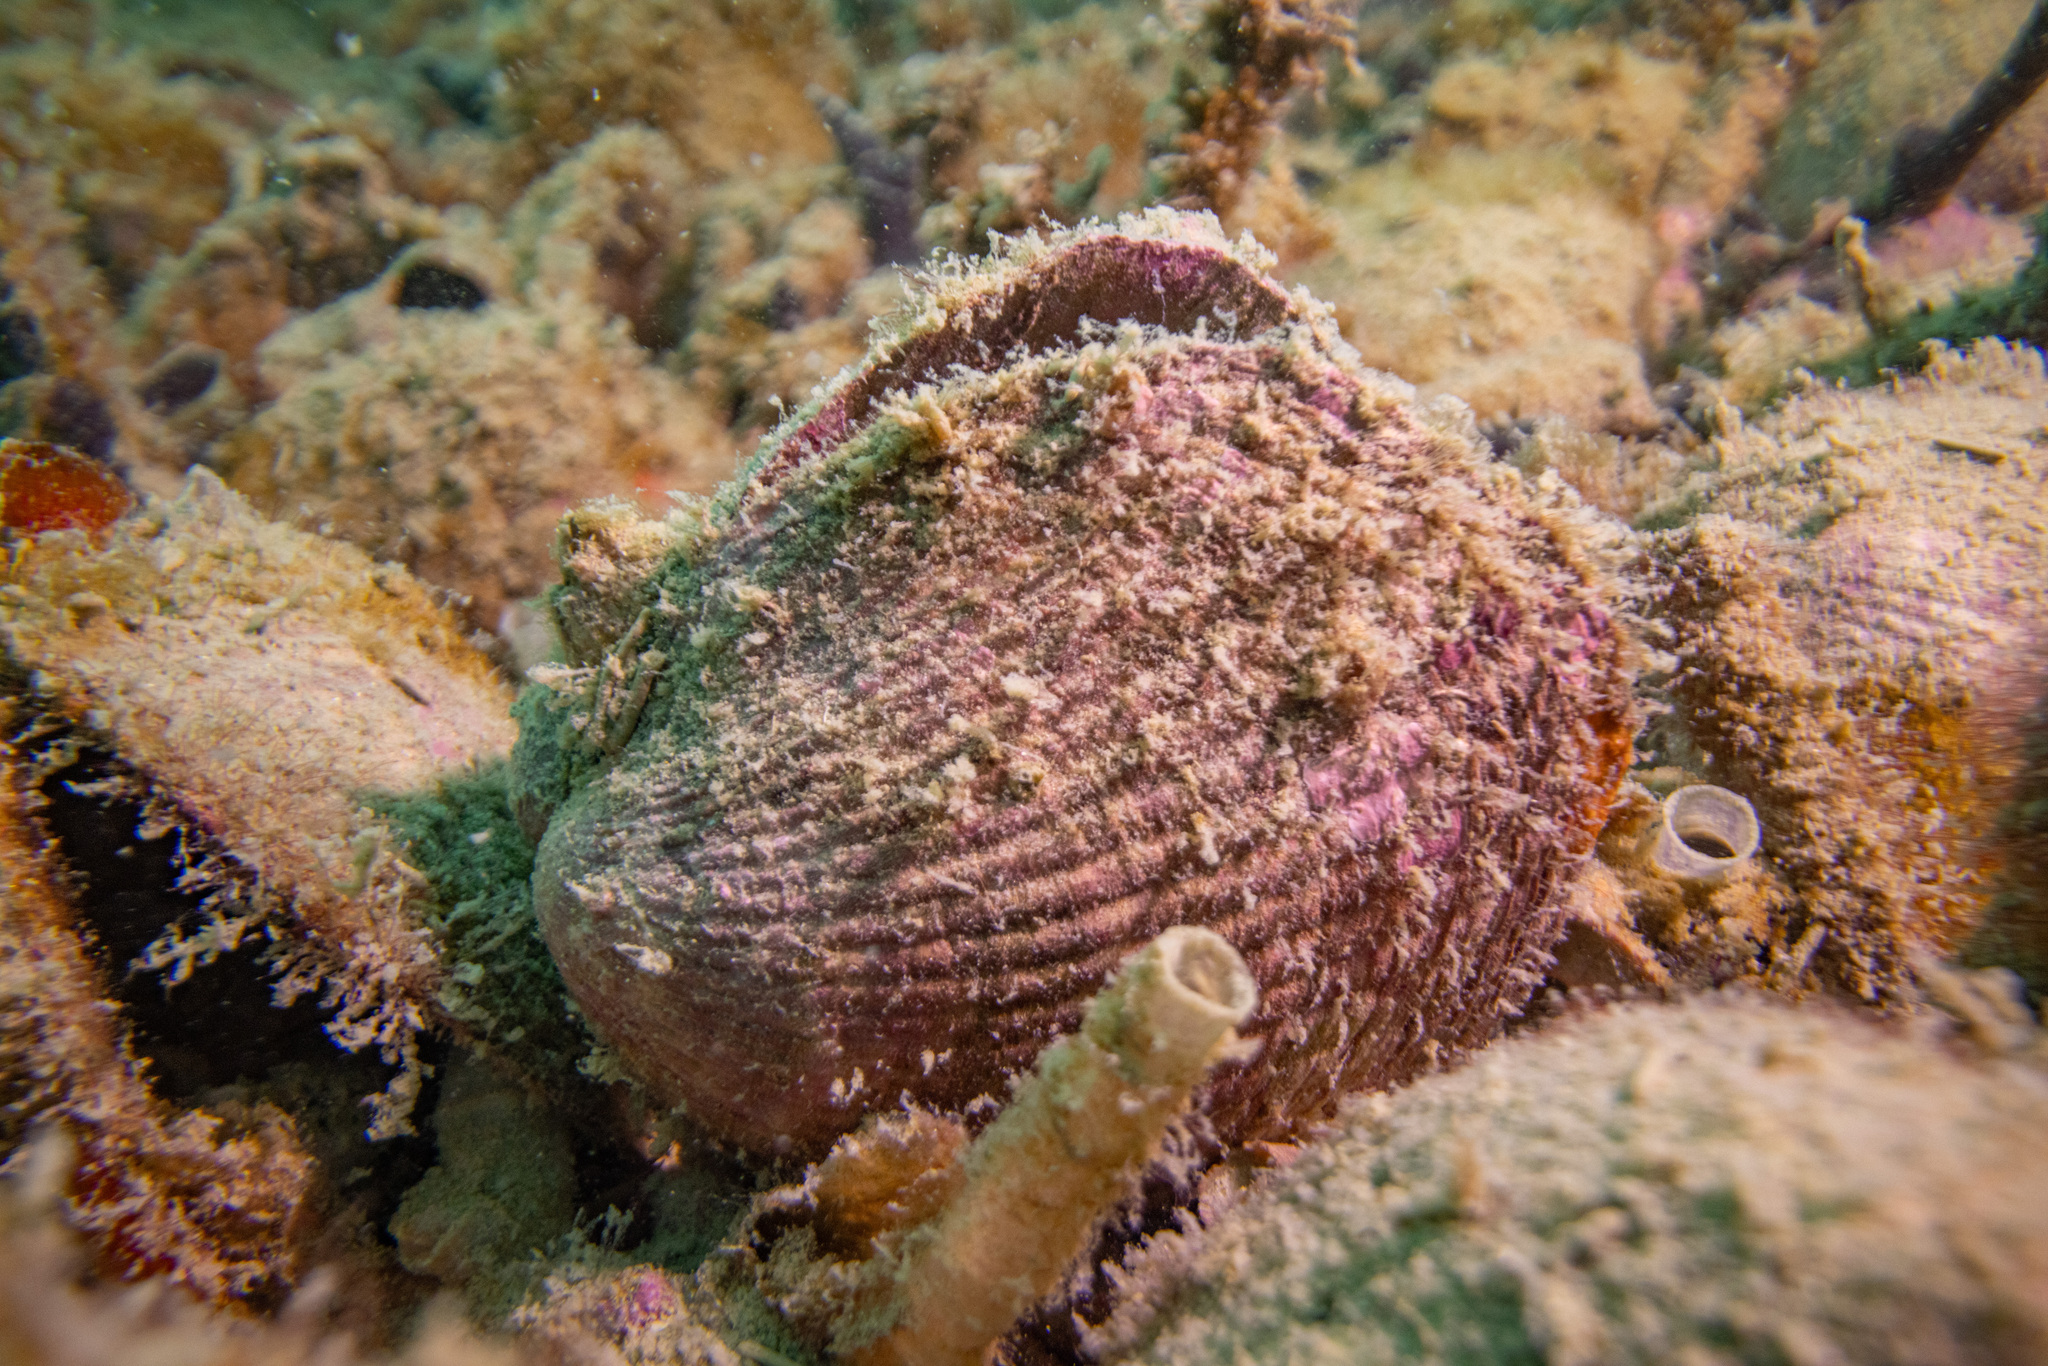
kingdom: Animalia
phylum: Mollusca
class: Bivalvia
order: Arcida
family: Glycymerididae
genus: Tucetona
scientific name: Tucetona laticostata
